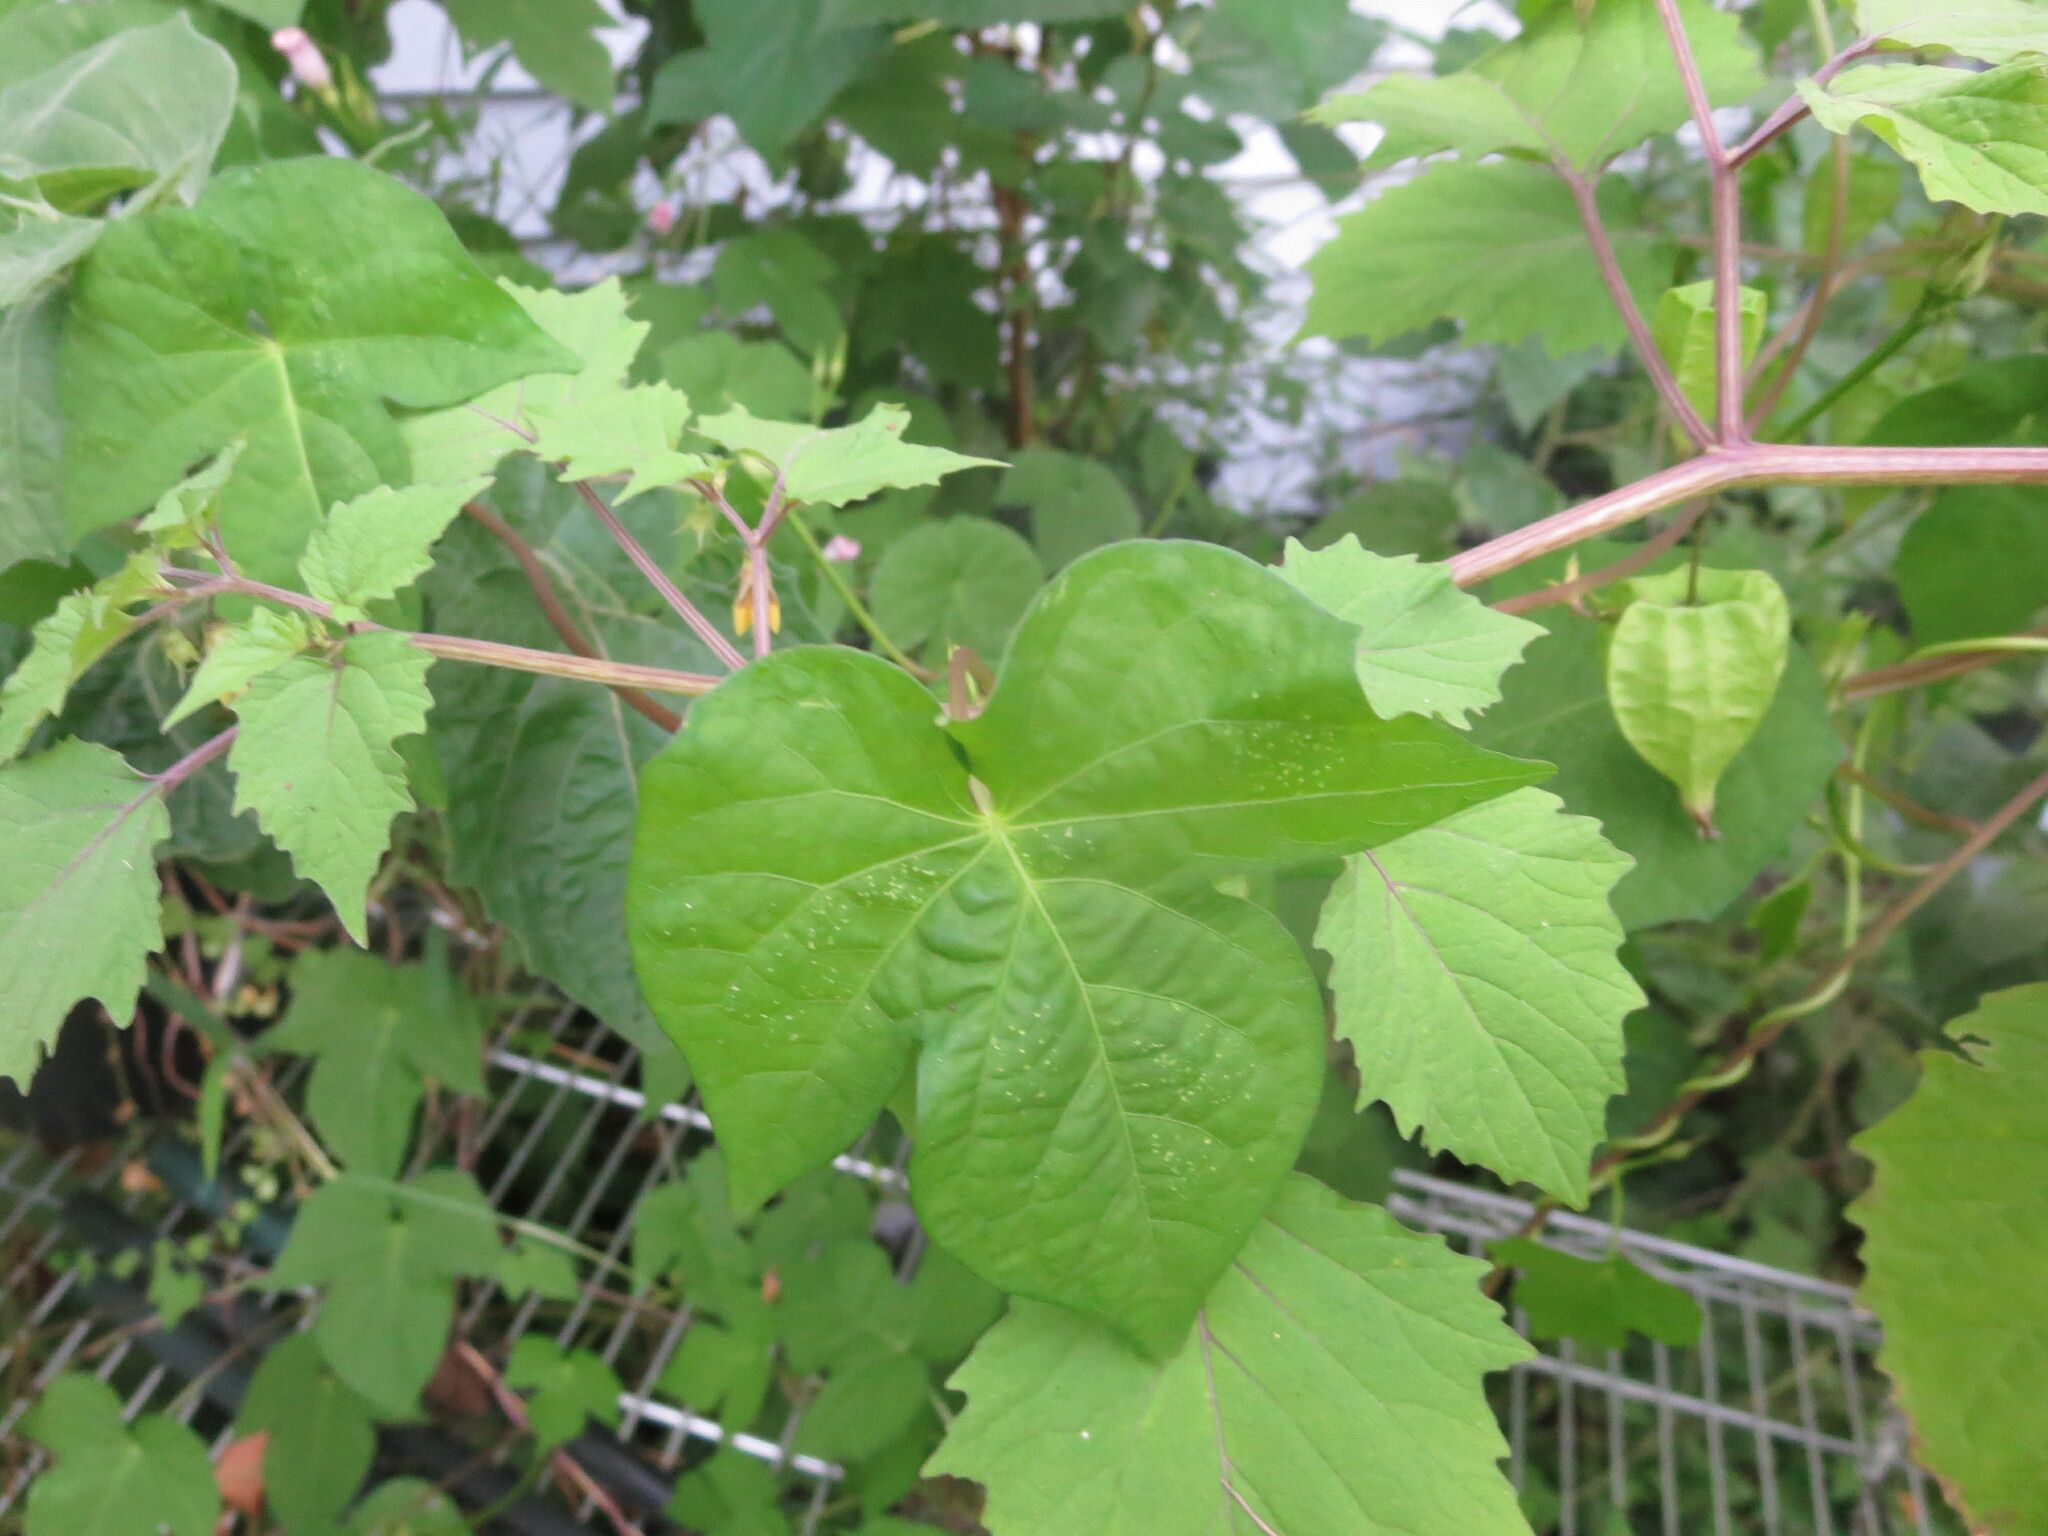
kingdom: Plantae
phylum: Tracheophyta
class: Magnoliopsida
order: Solanales
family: Solanaceae
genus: Physalis
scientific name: Physalis cordata
